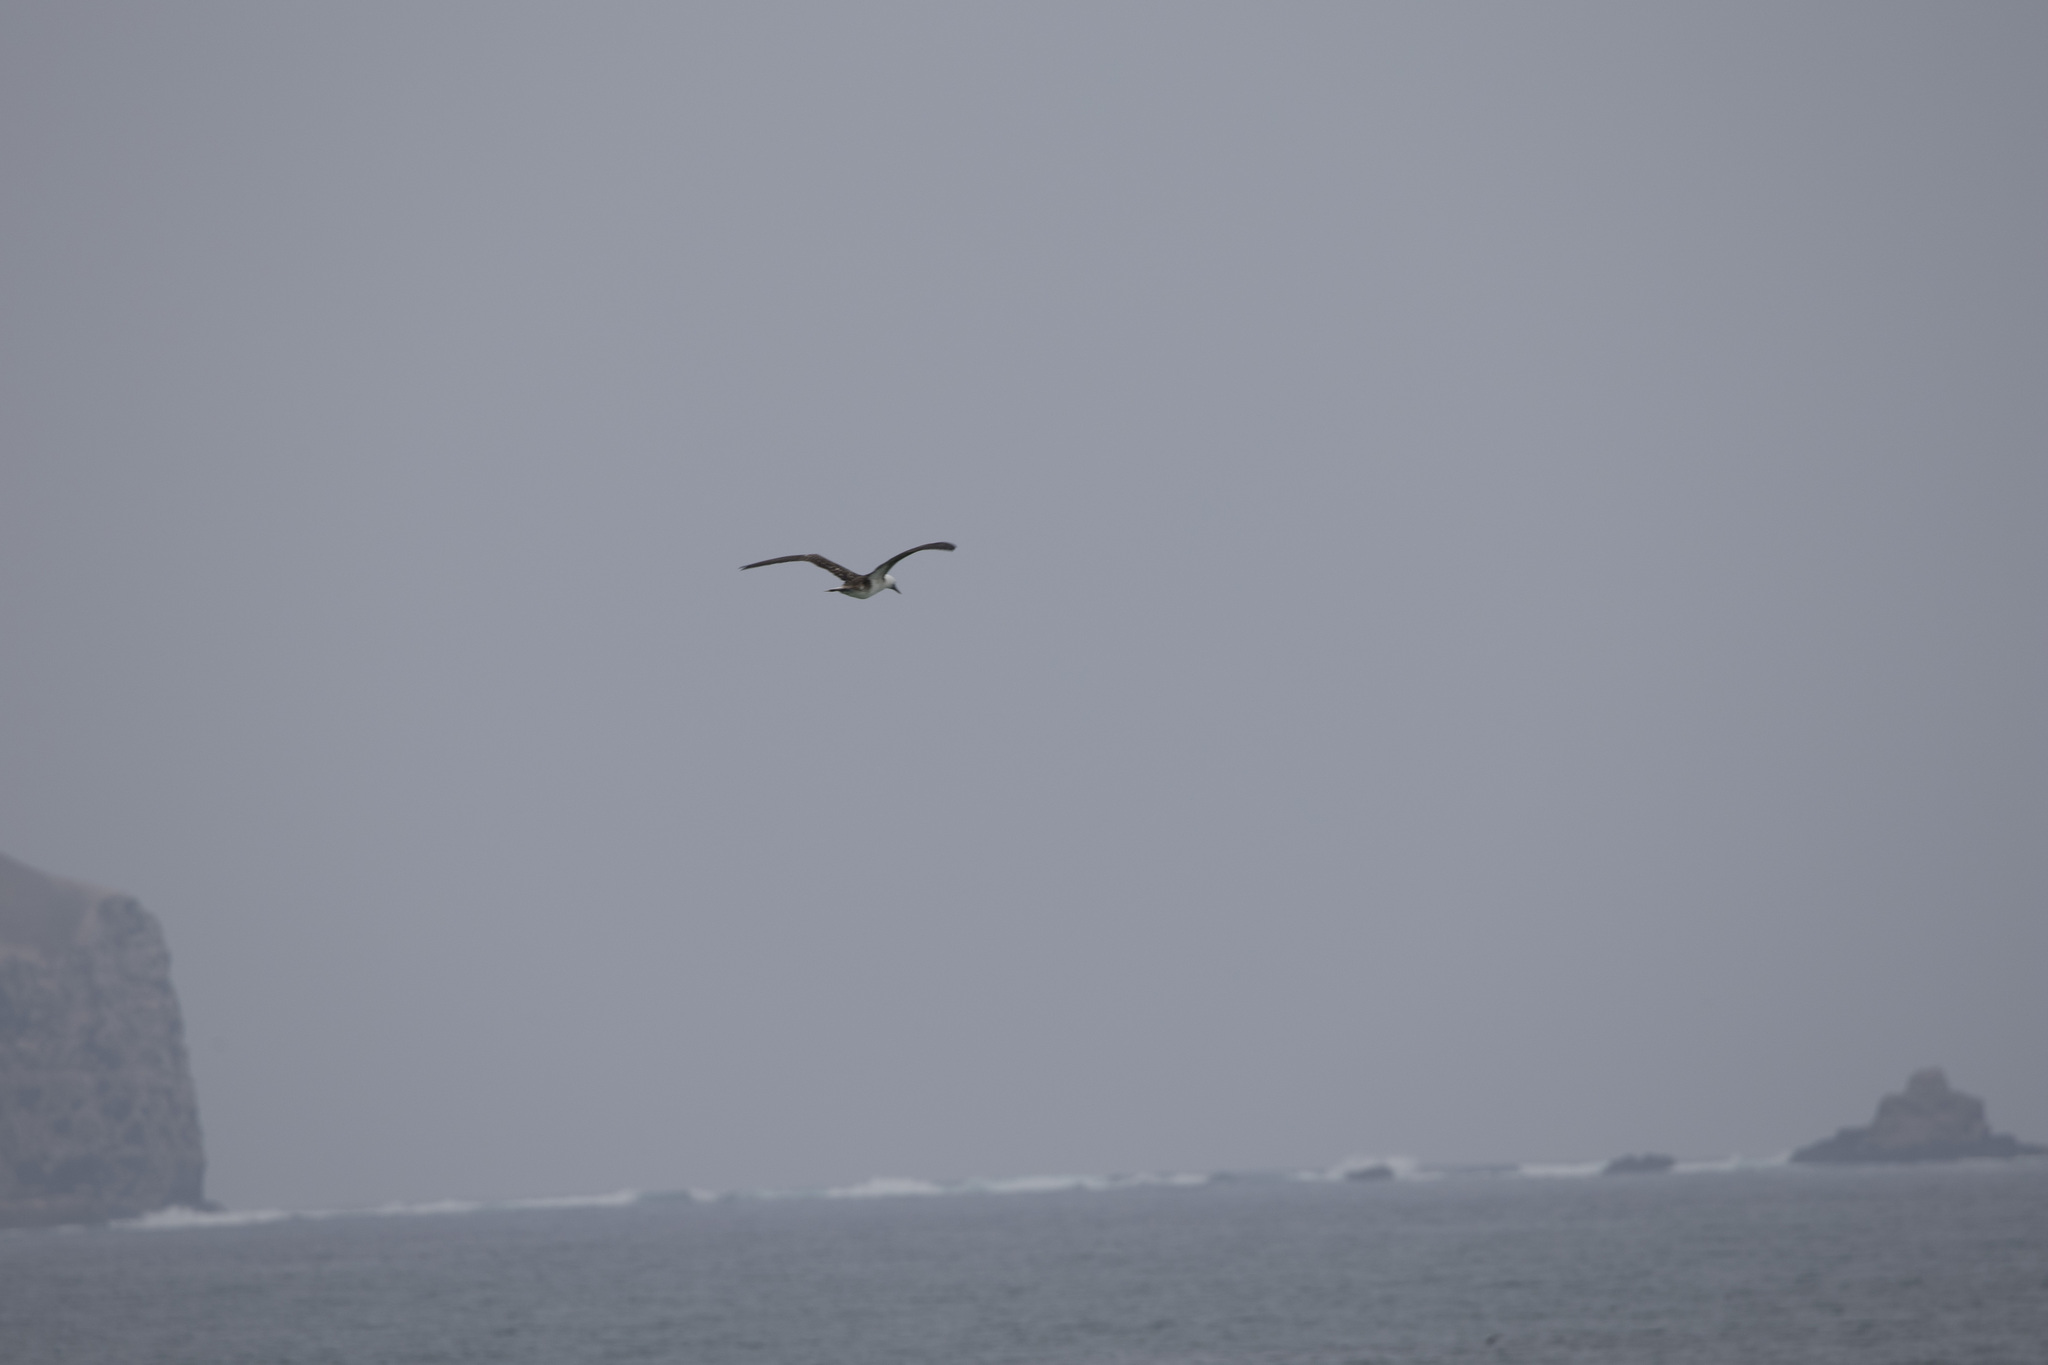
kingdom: Animalia
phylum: Chordata
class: Aves
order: Suliformes
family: Sulidae
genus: Sula
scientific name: Sula variegata
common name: Peruvian booby
